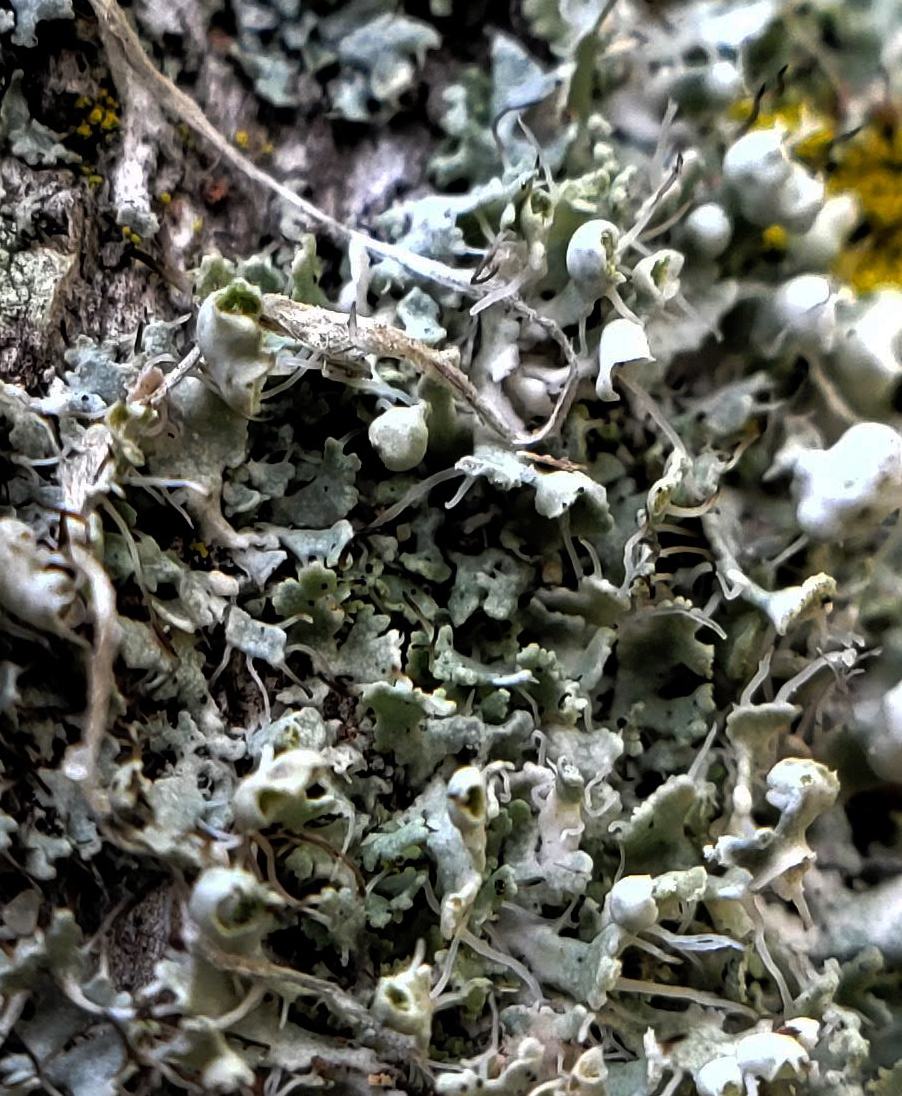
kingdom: Fungi
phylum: Ascomycota
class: Lecanoromycetes
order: Caliciales
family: Physciaceae
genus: Physcia
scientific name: Physcia adscendens
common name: Hooded rosette lichen
